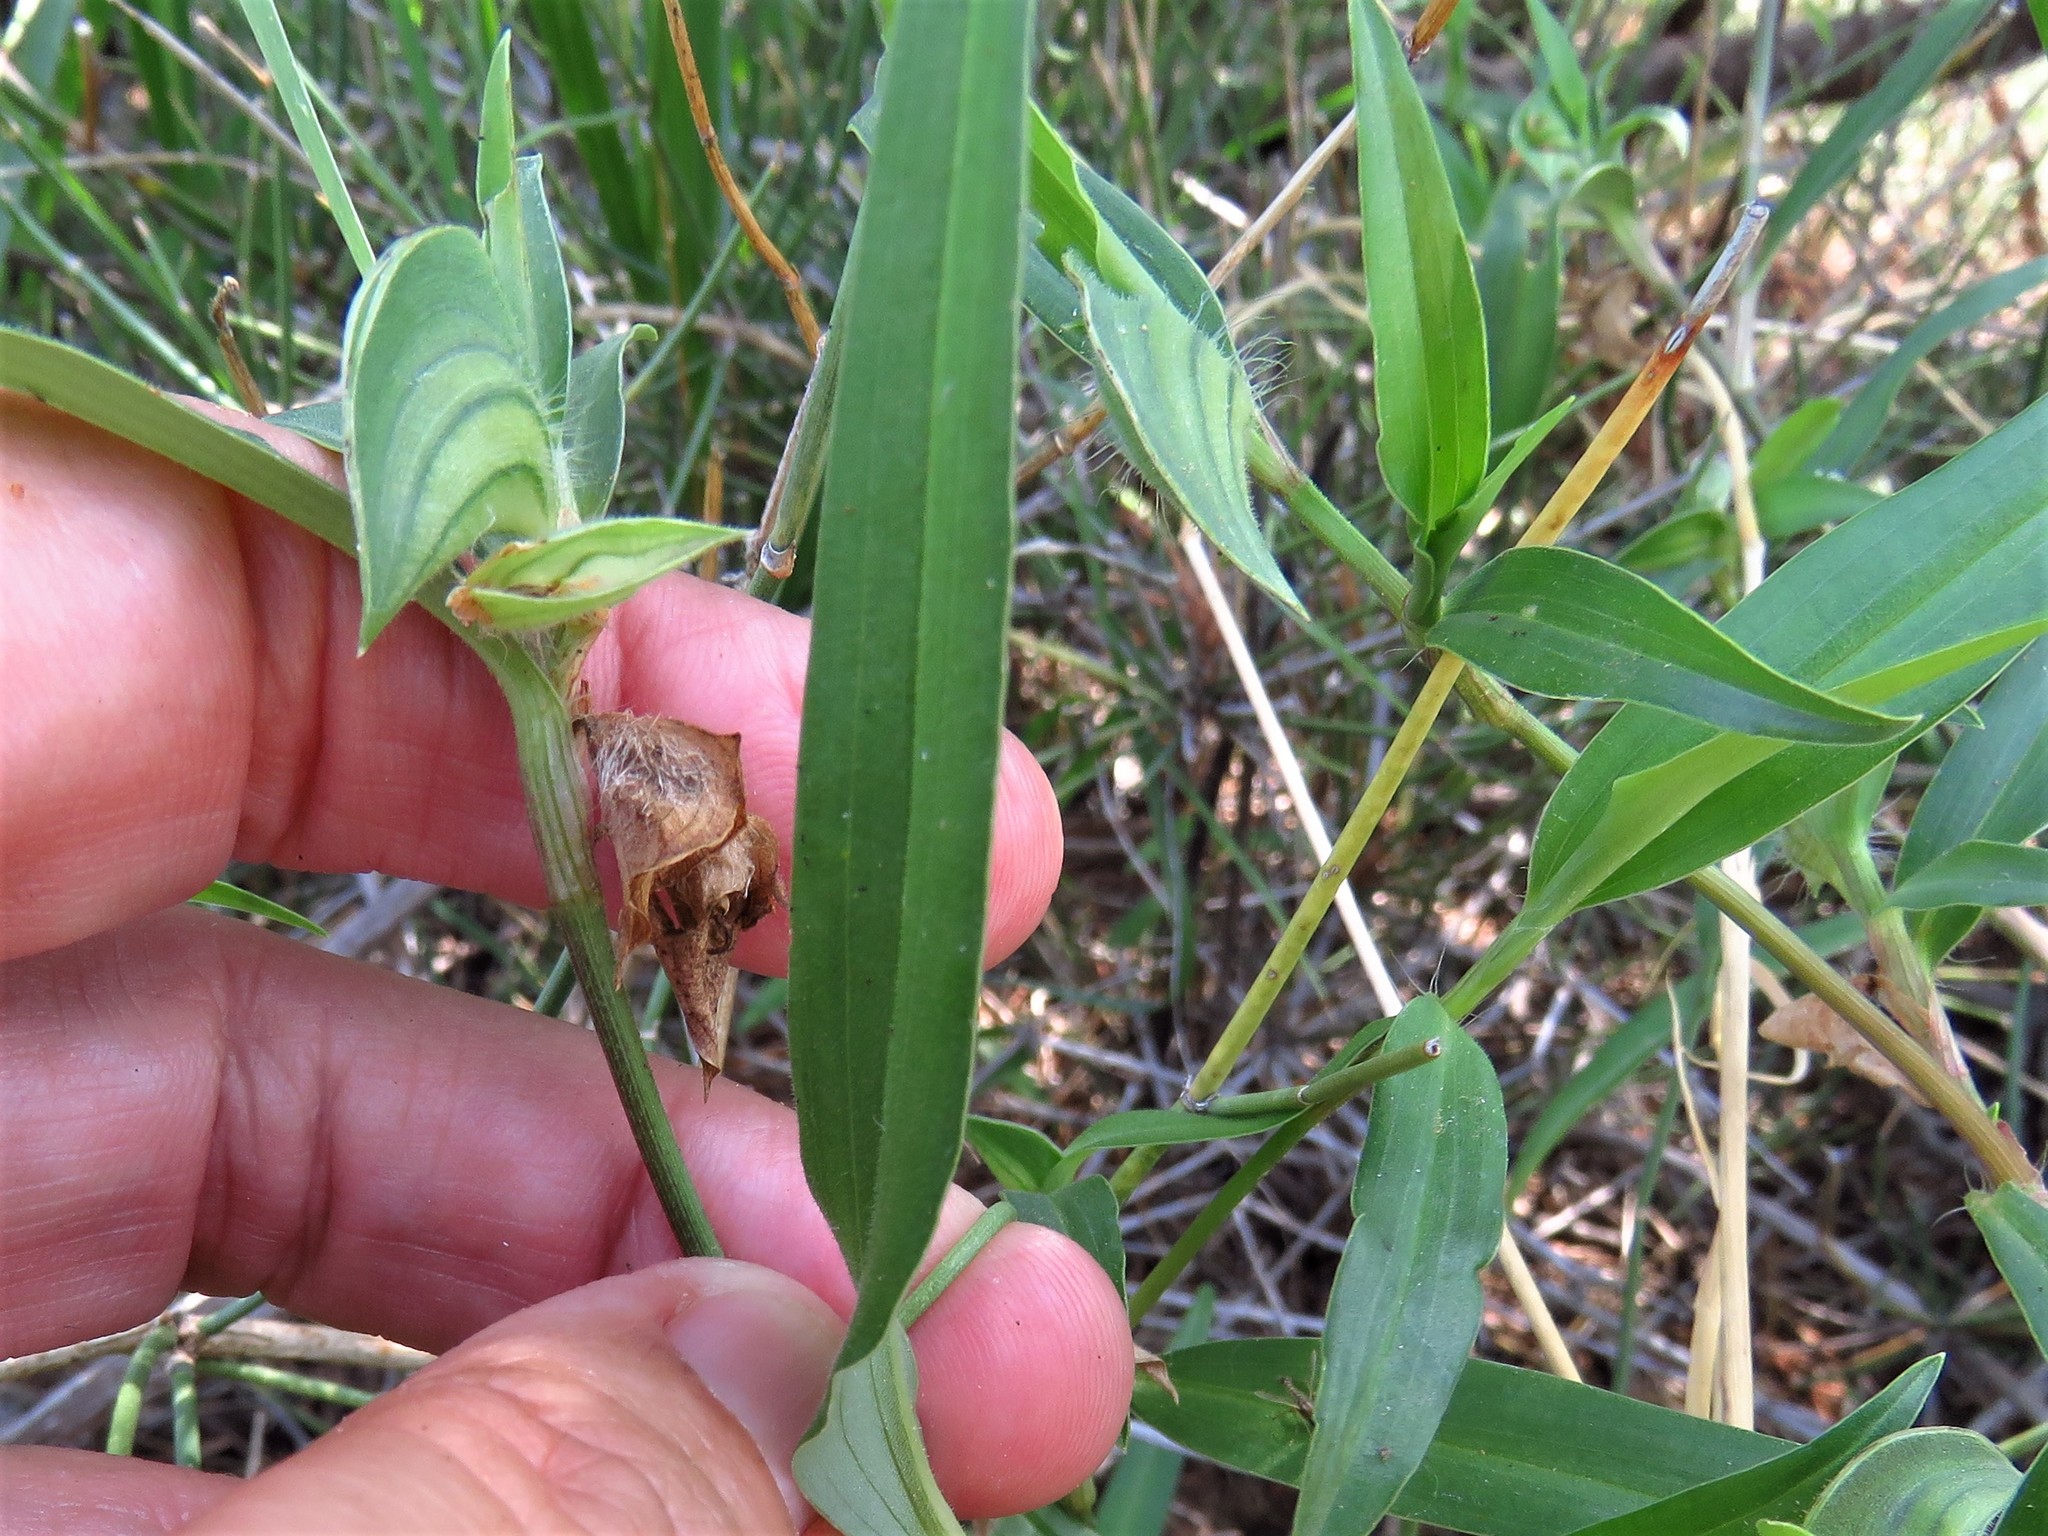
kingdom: Plantae
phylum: Tracheophyta
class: Liliopsida
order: Commelinales
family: Commelinaceae
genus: Commelina
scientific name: Commelina erecta
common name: Blousel blommetjie
